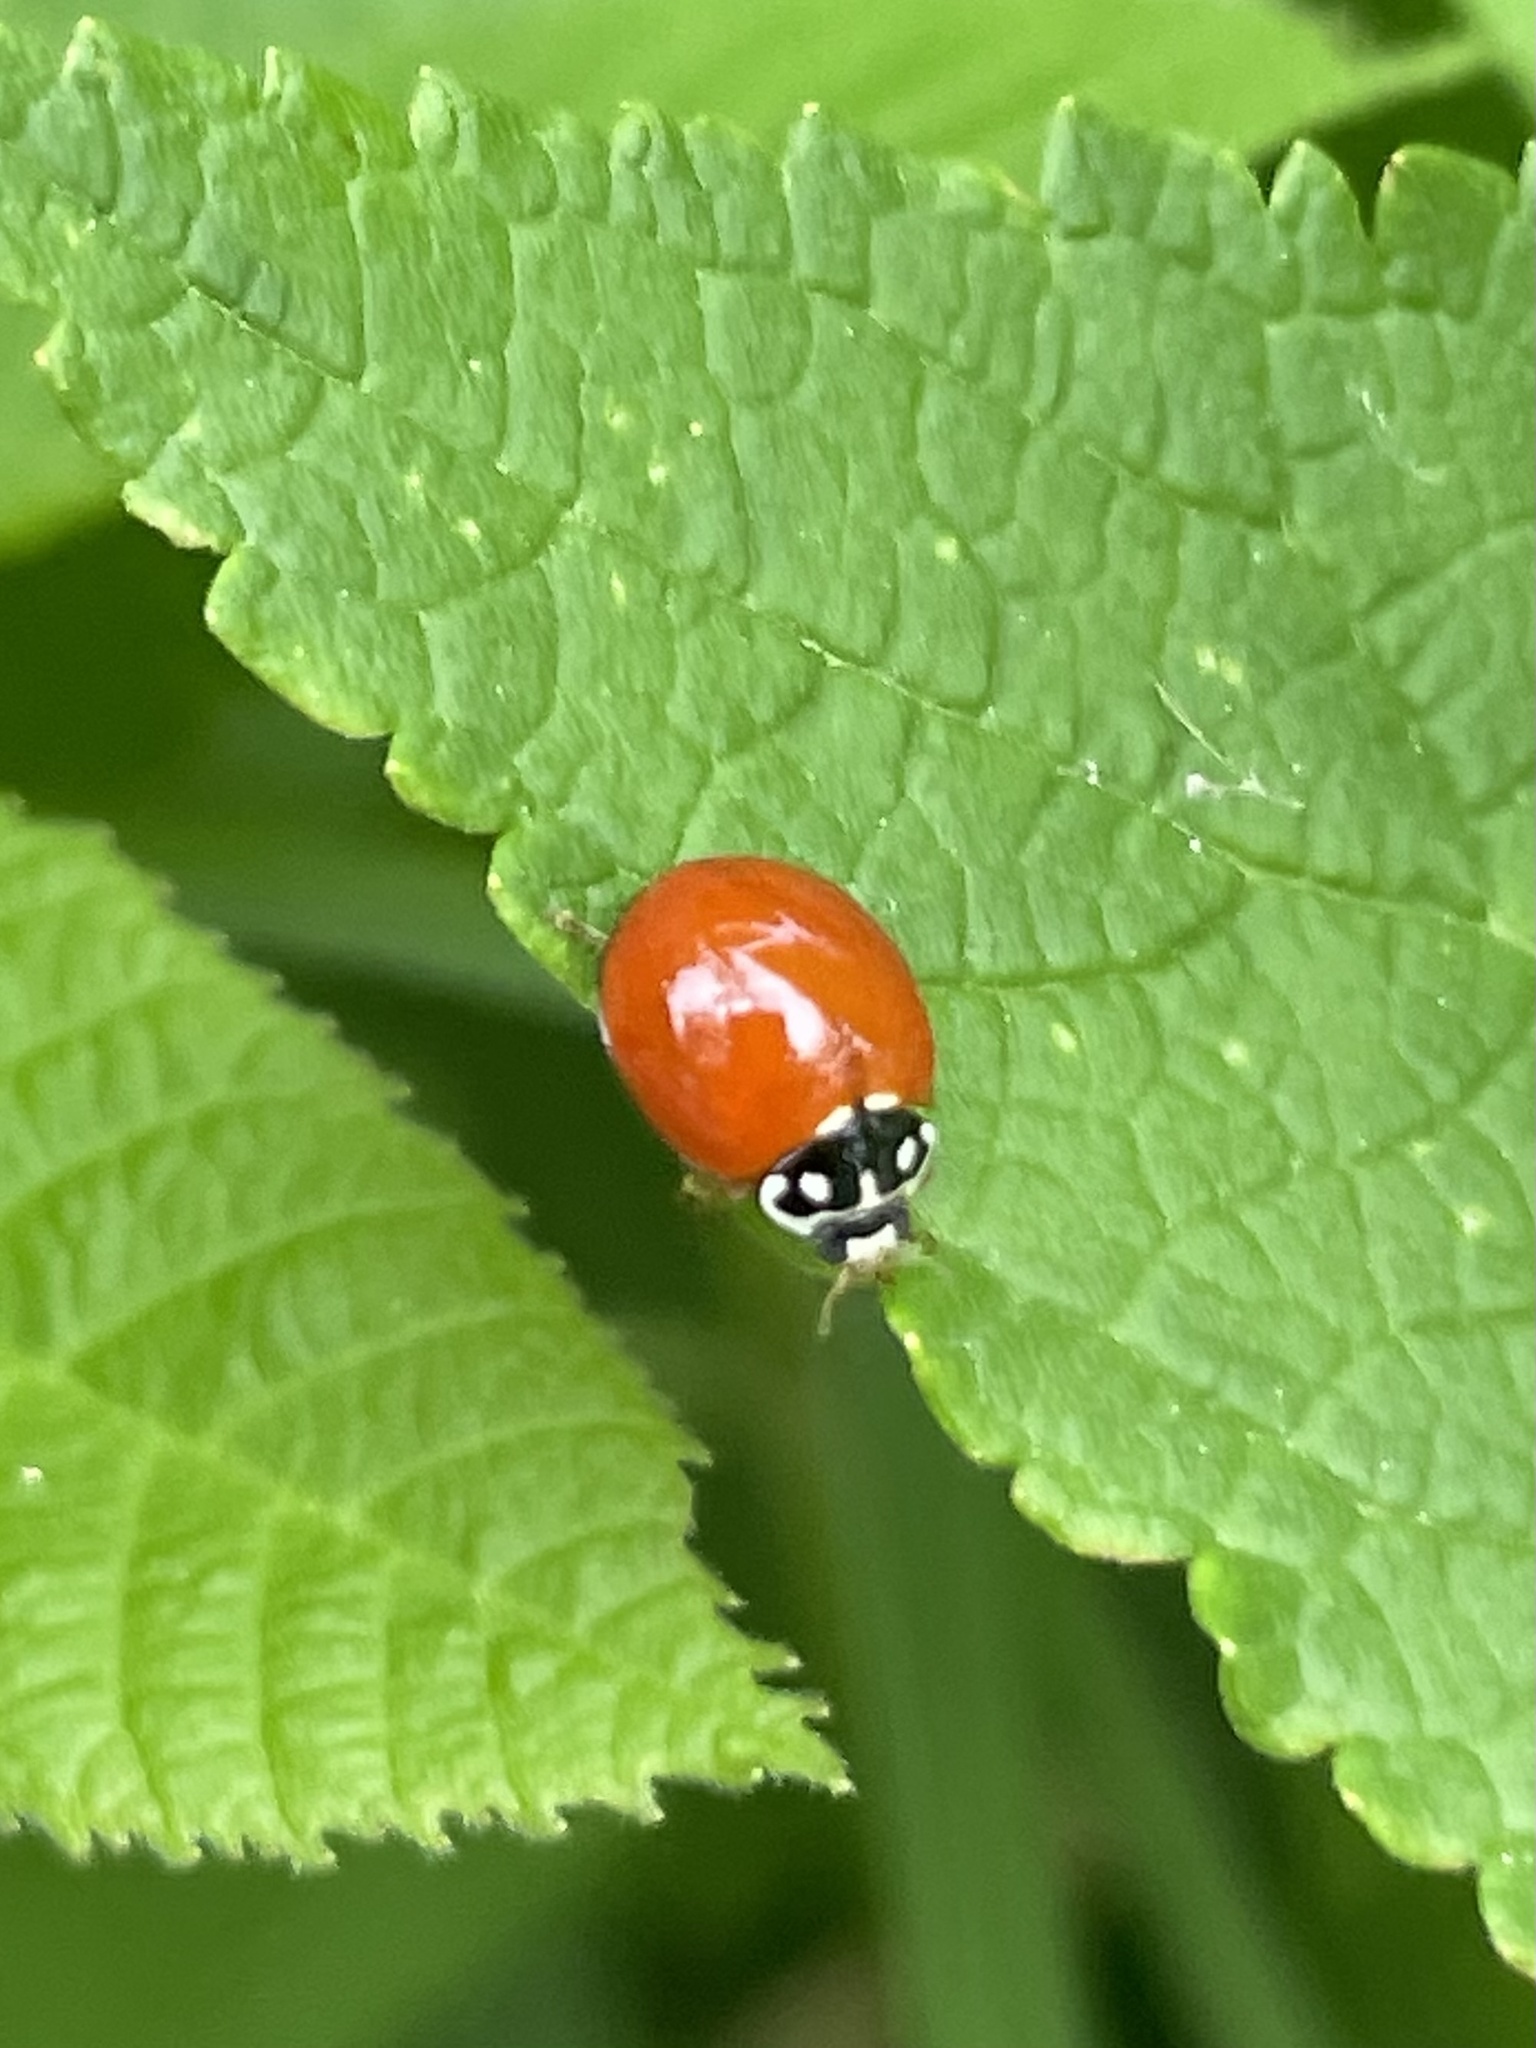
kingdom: Animalia
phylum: Arthropoda
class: Insecta
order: Coleoptera
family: Coccinellidae
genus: Cycloneda
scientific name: Cycloneda sanguinea
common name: Ladybird beetle
